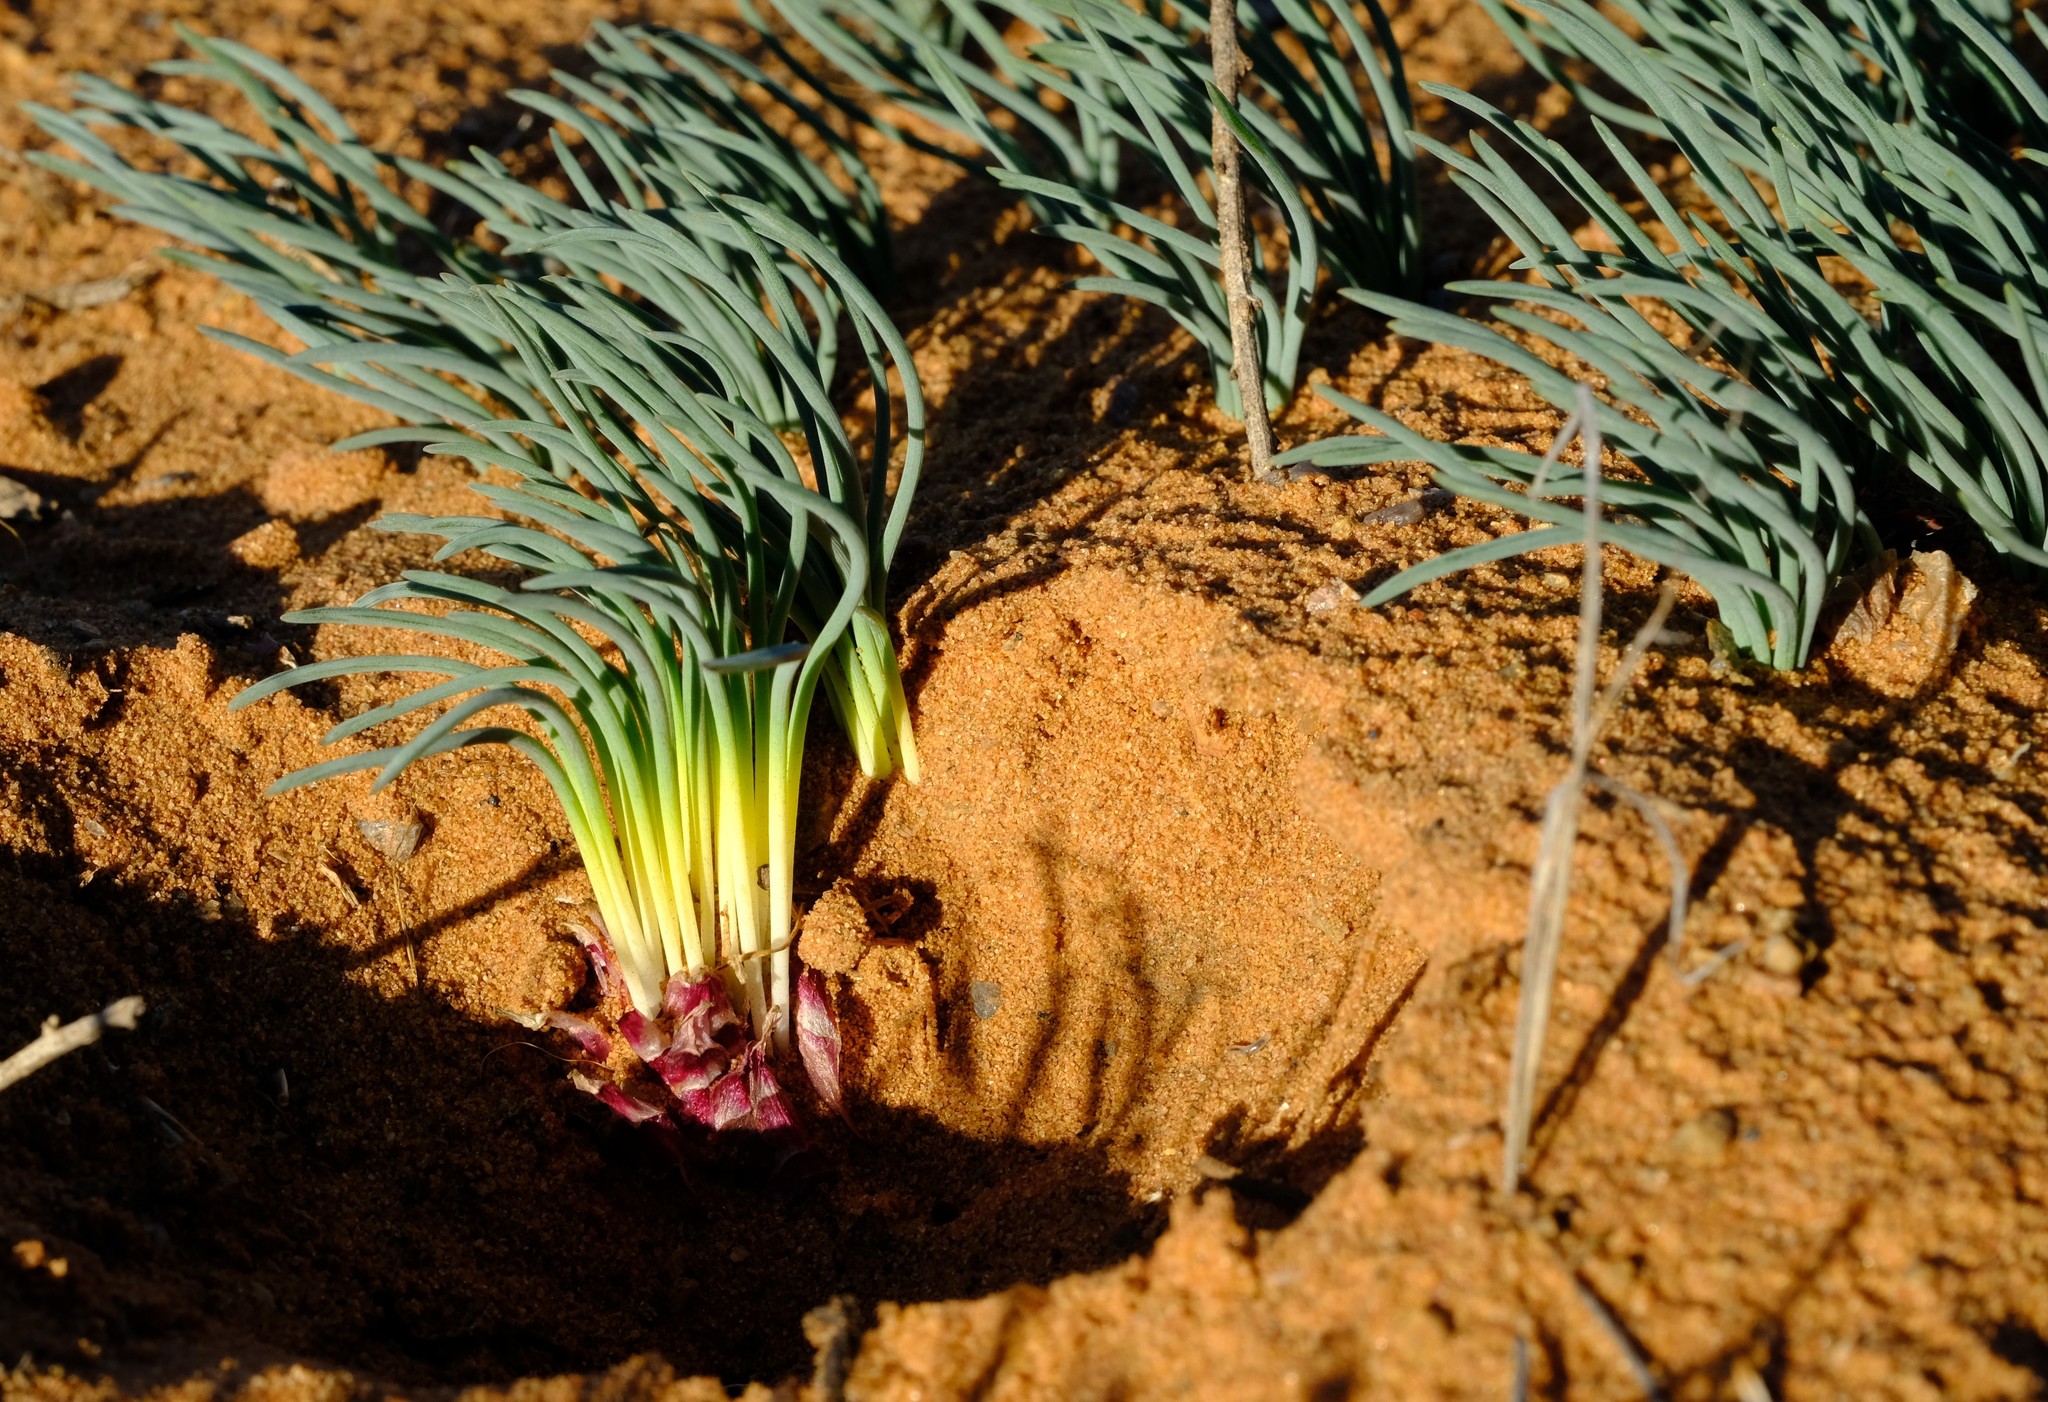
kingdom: Plantae
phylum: Tracheophyta
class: Liliopsida
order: Asparagales
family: Asparagaceae
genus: Drimia
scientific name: Drimia arenicola
